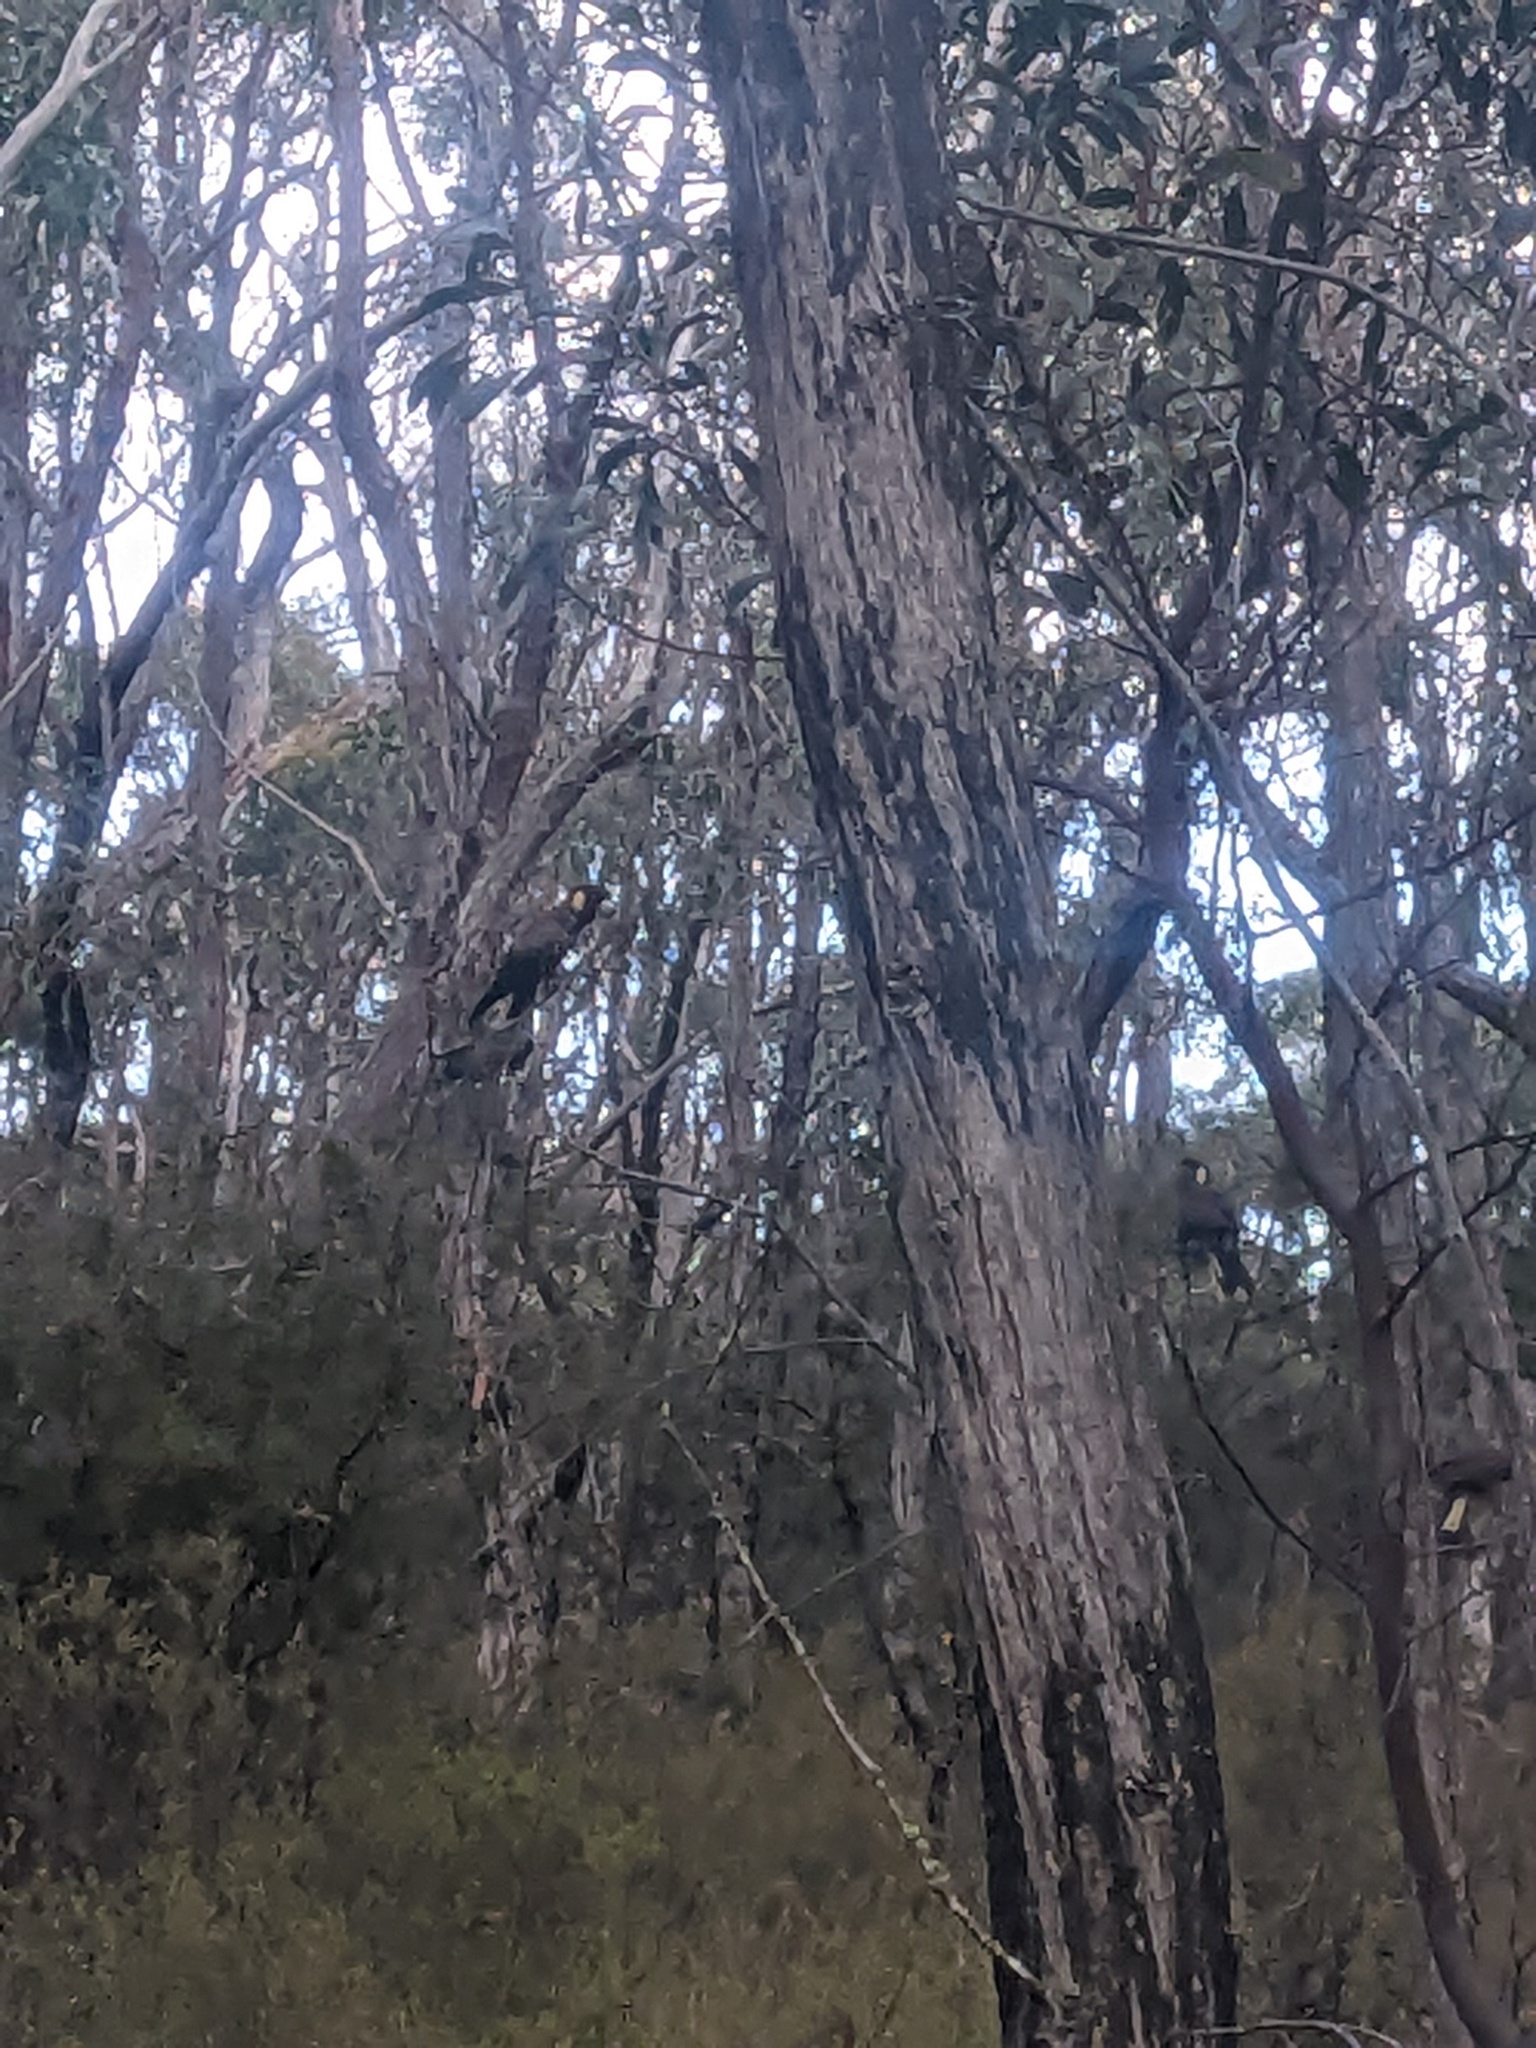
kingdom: Animalia
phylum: Chordata
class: Aves
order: Psittaciformes
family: Cacatuidae
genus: Zanda
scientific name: Zanda funerea
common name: Yellow-tailed black-cockatoo
